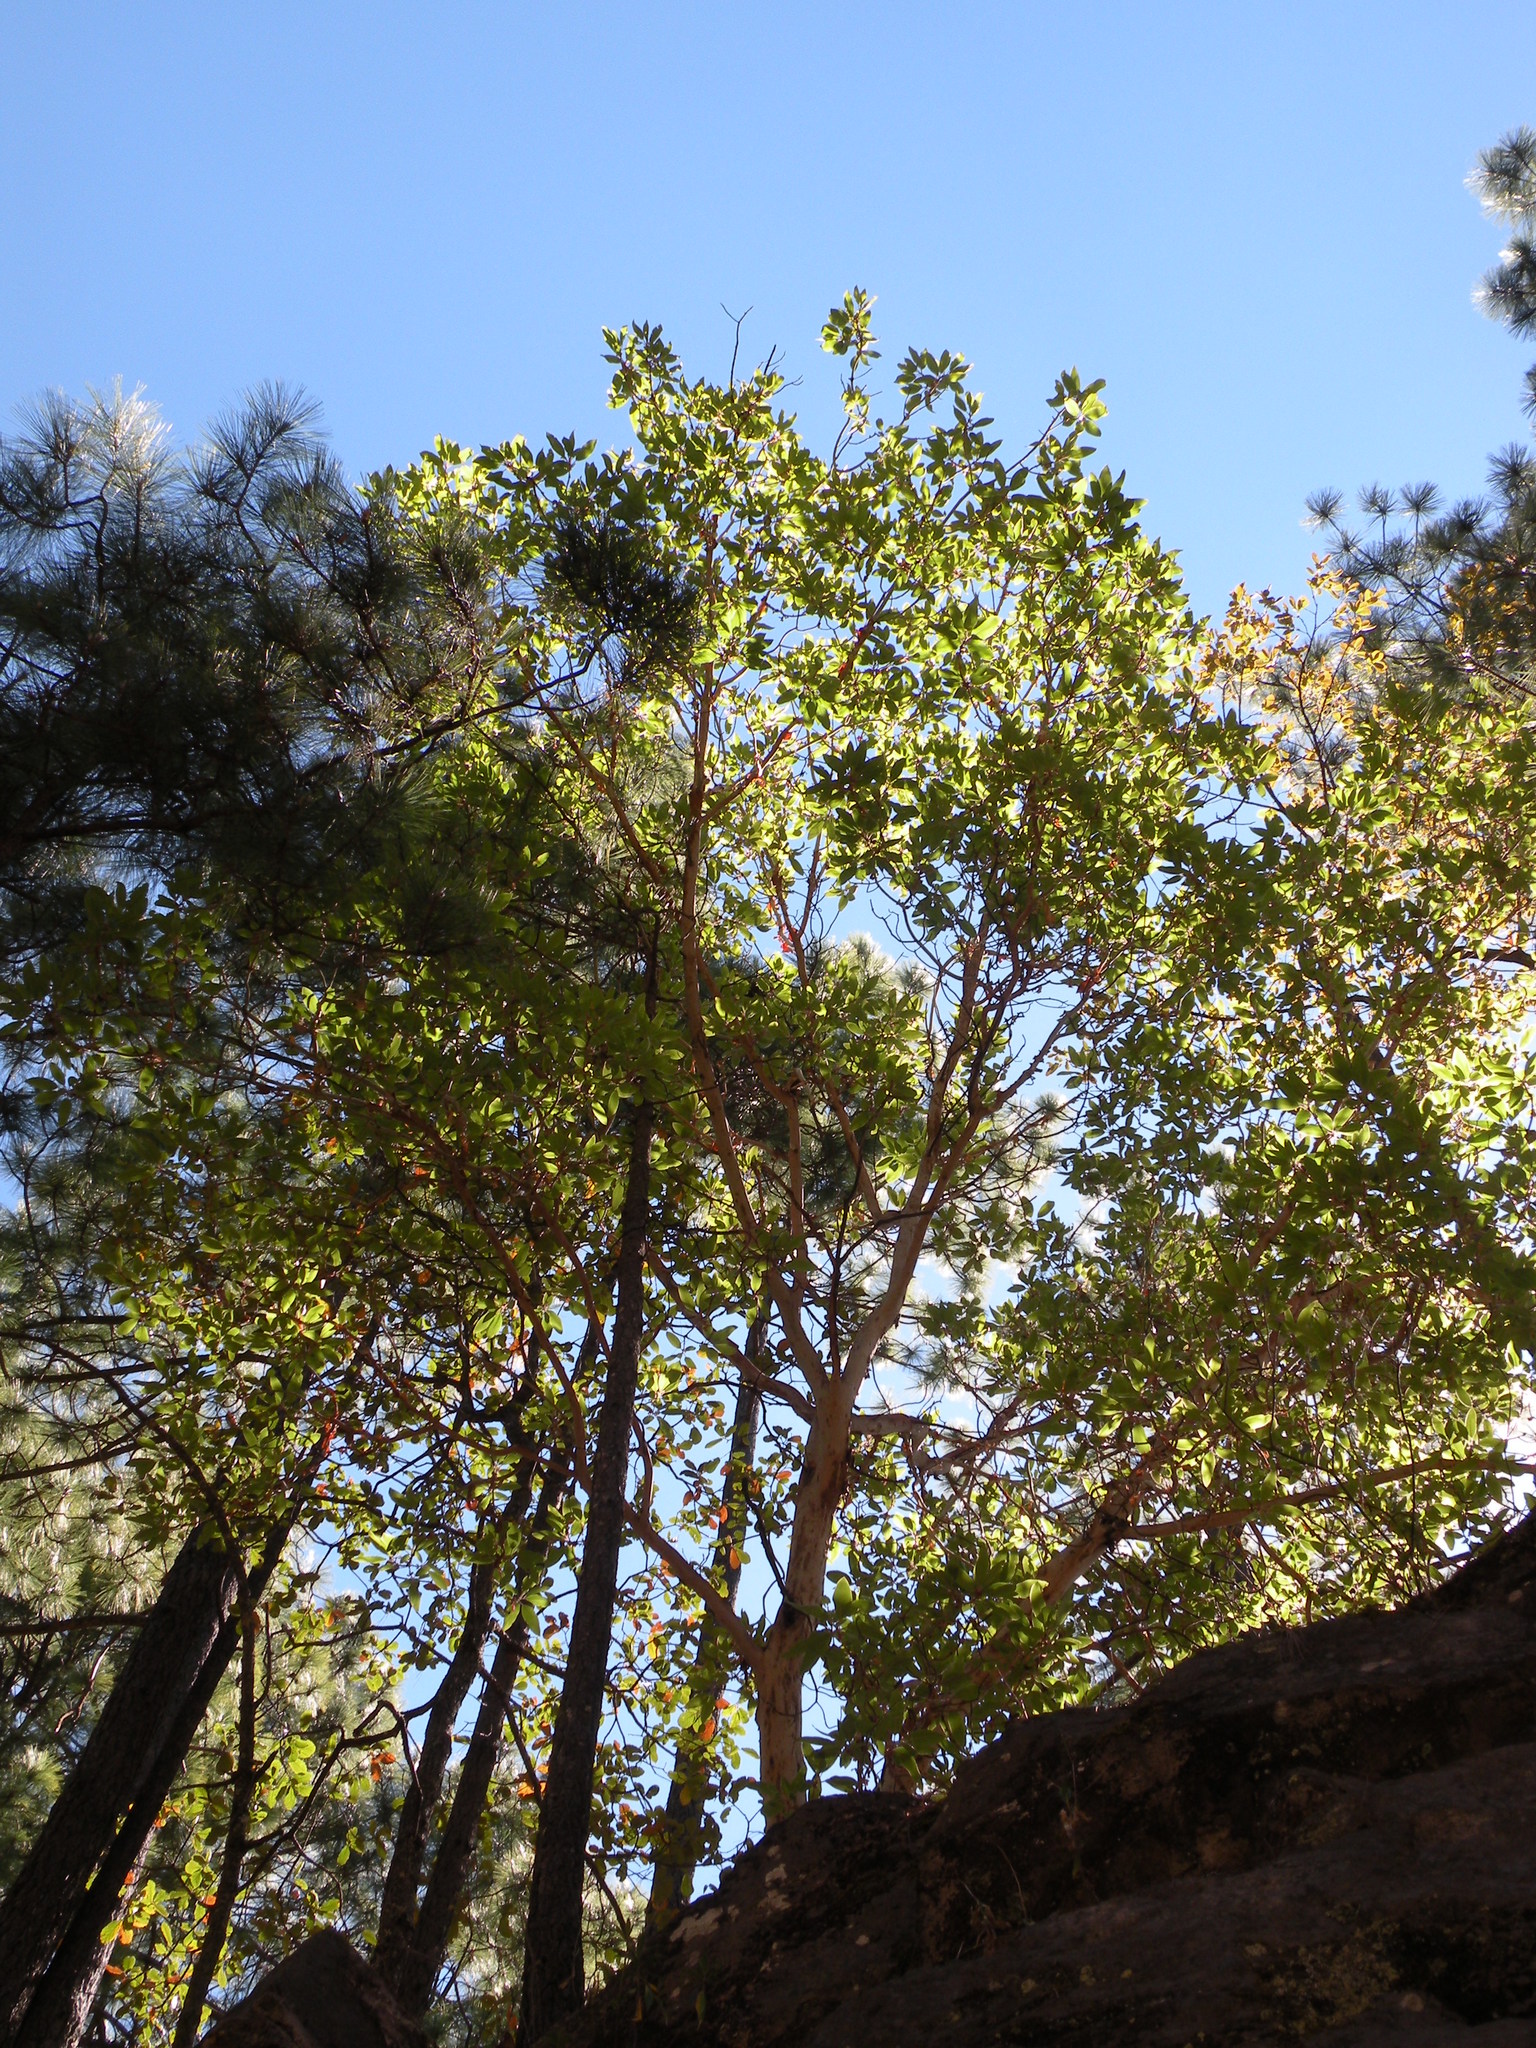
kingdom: Plantae
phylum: Tracheophyta
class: Magnoliopsida
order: Ericales
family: Ericaceae
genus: Arbutus
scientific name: Arbutus xalapensis
